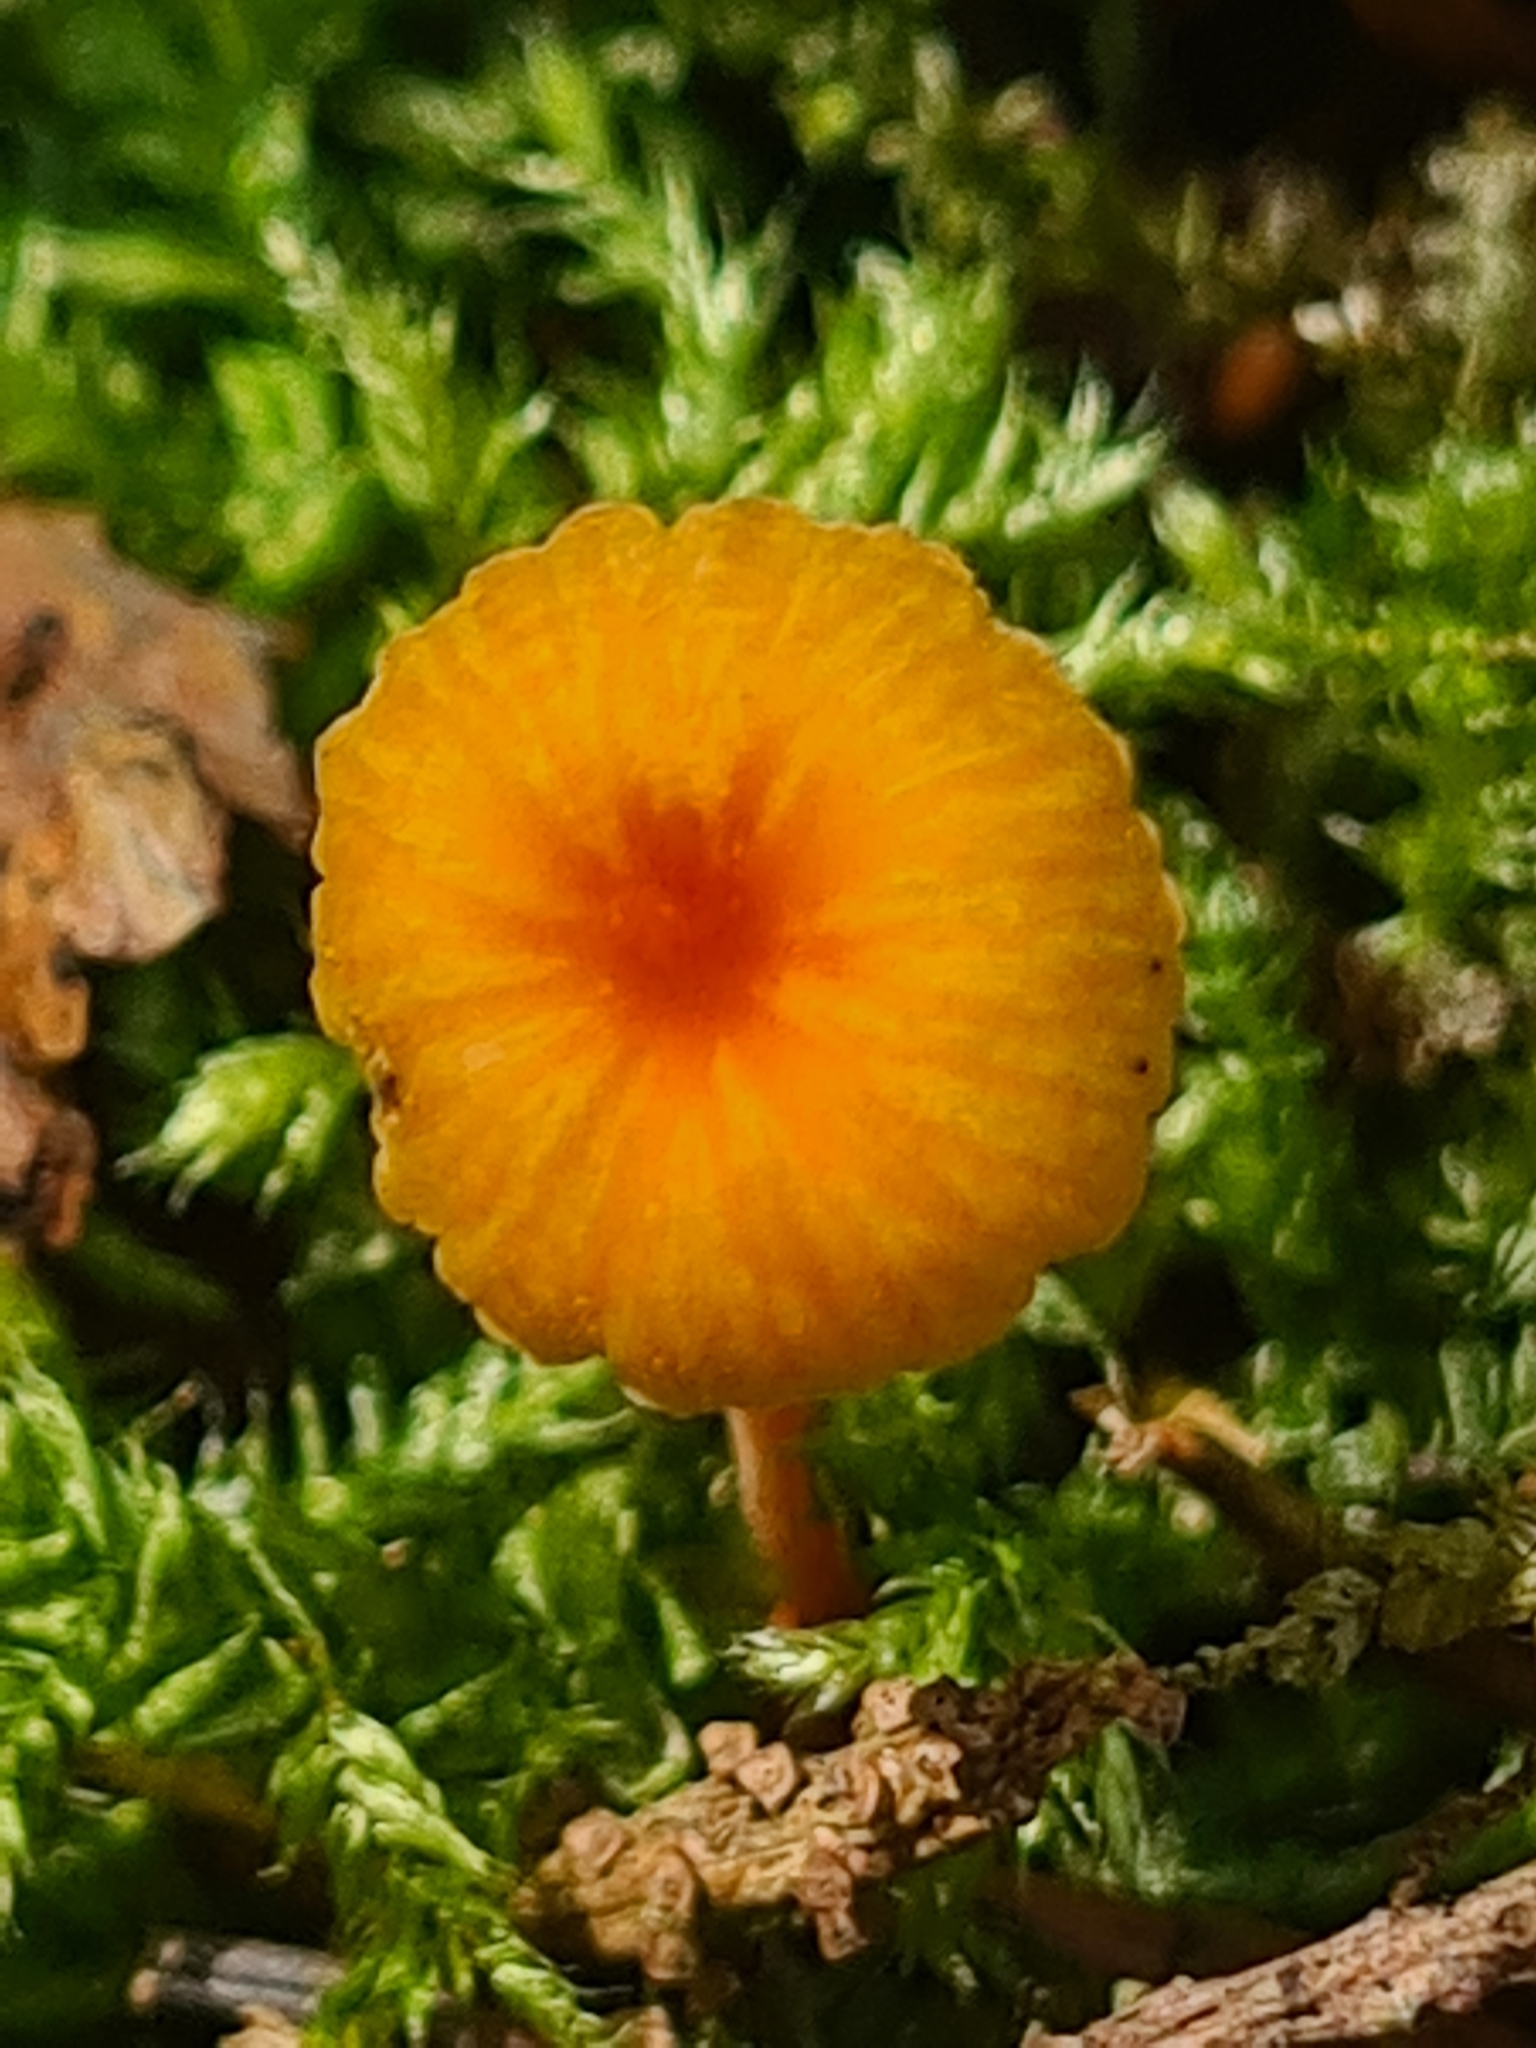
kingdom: Fungi
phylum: Basidiomycota
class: Agaricomycetes
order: Hymenochaetales
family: Rickenellaceae
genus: Rickenella
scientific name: Rickenella fibula
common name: Orange mosscap
